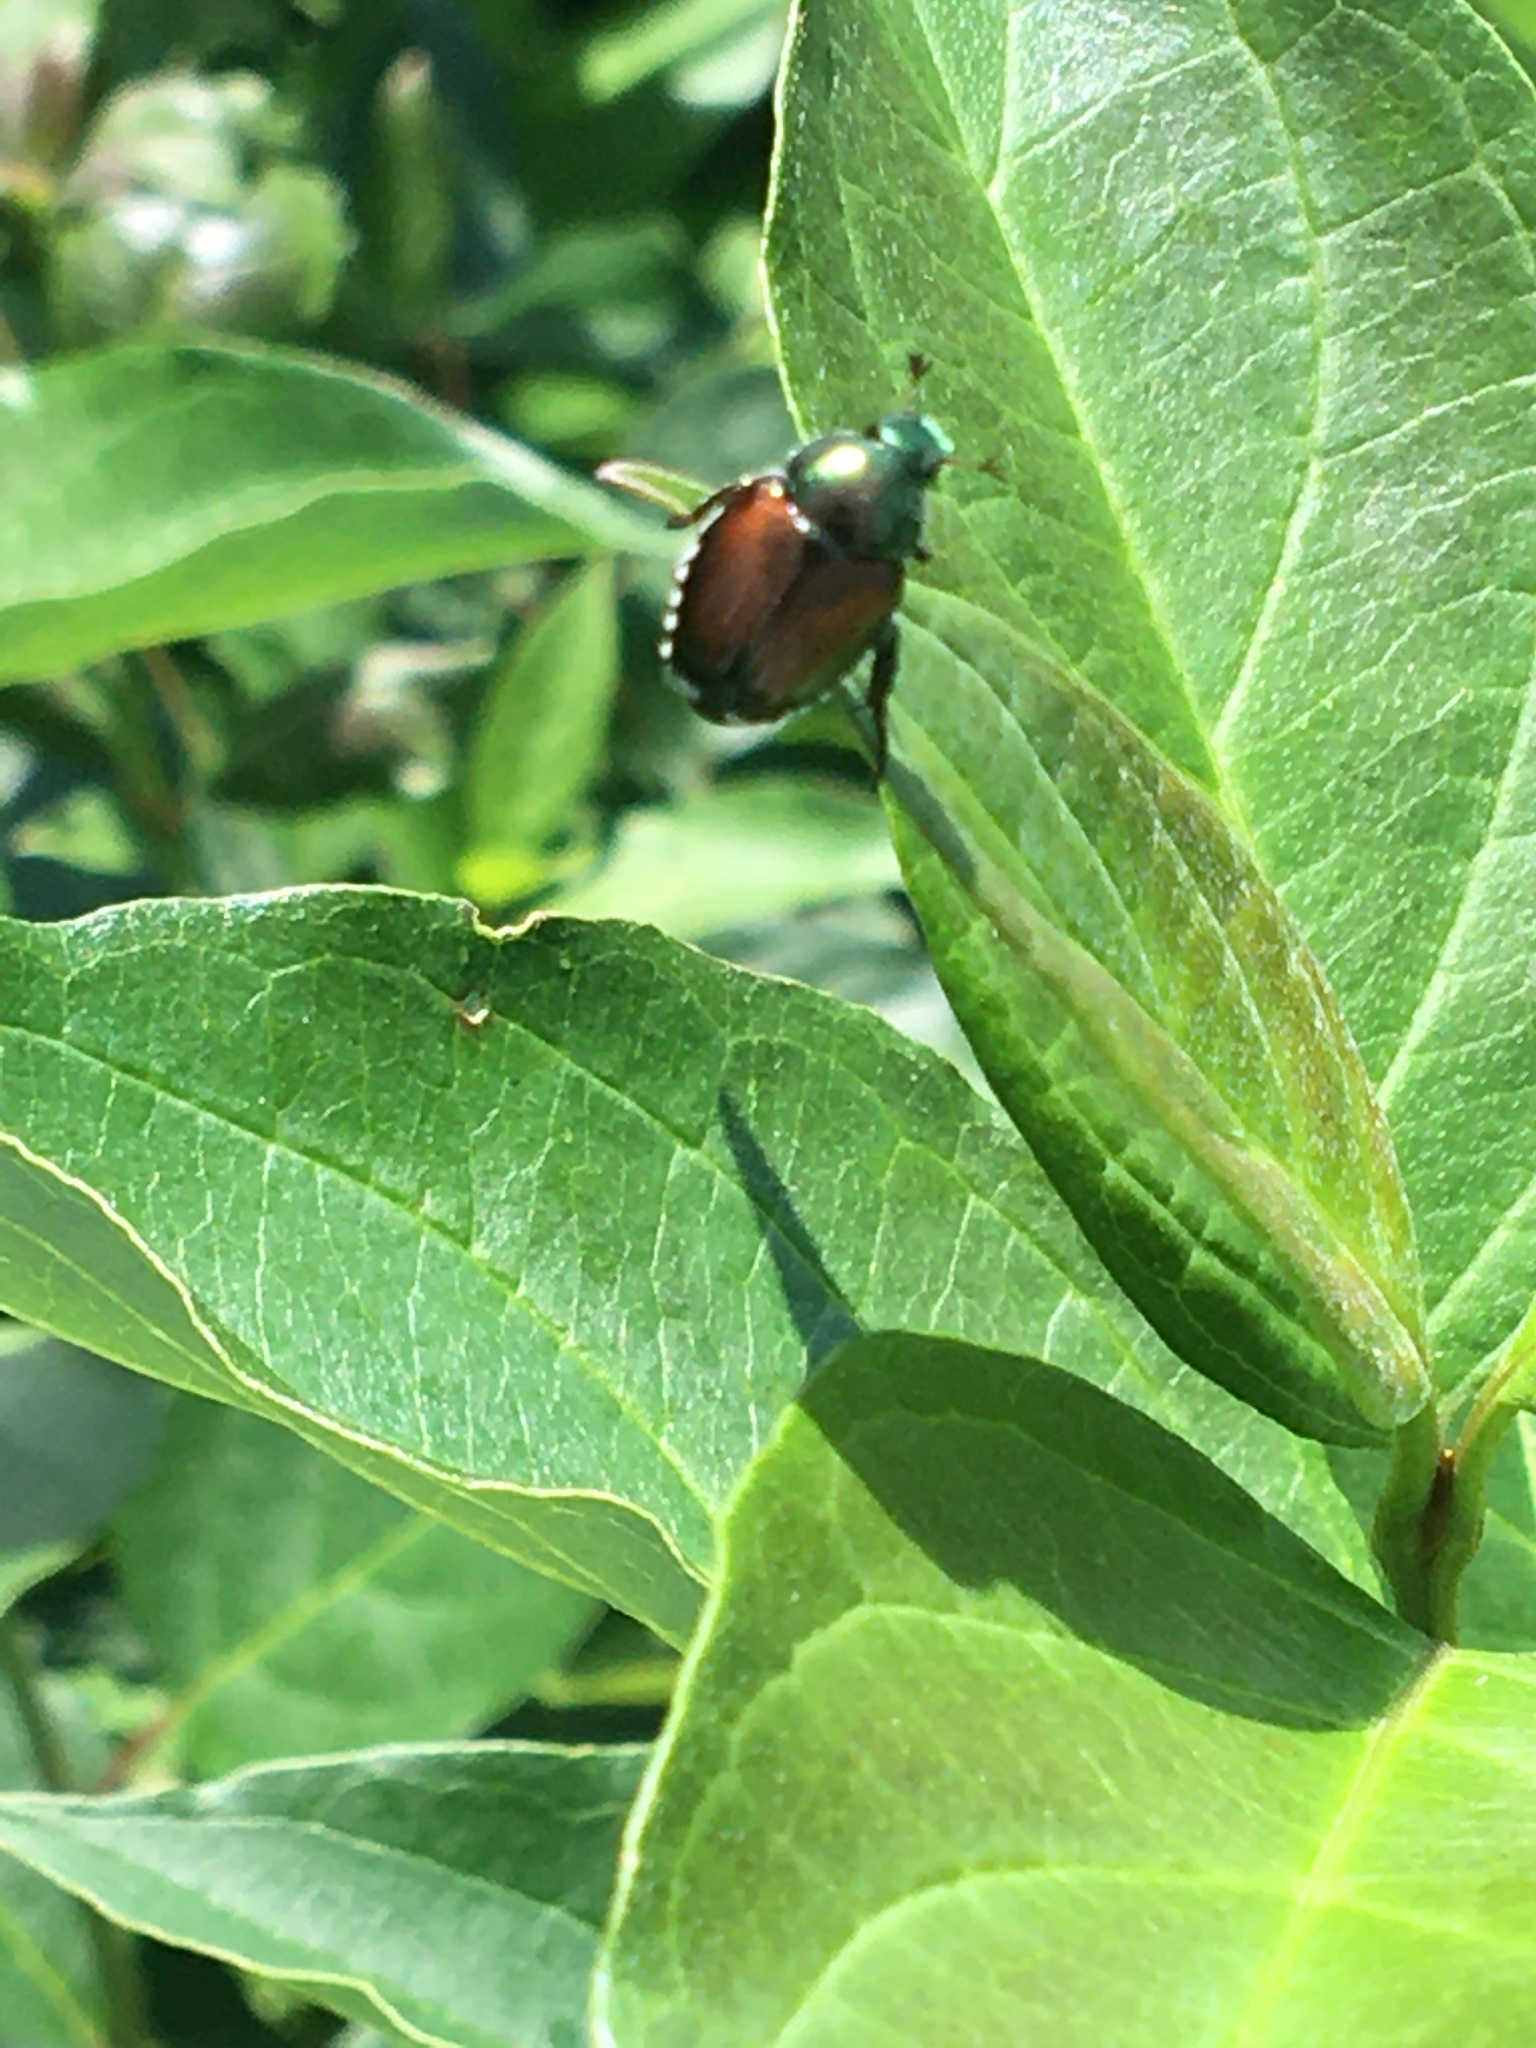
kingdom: Animalia
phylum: Arthropoda
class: Insecta
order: Coleoptera
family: Scarabaeidae
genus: Popillia
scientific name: Popillia japonica
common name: Japanese beetle
